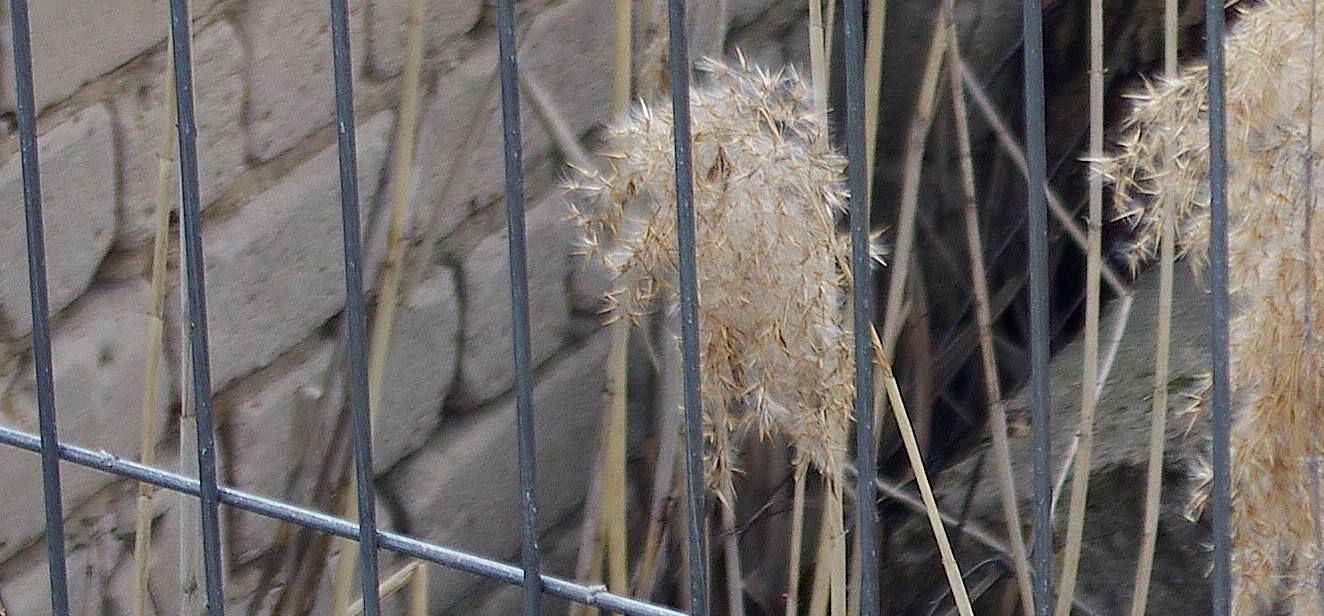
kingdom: Plantae
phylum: Tracheophyta
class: Liliopsida
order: Poales
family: Poaceae
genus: Phragmites
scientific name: Phragmites australis
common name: Common reed
